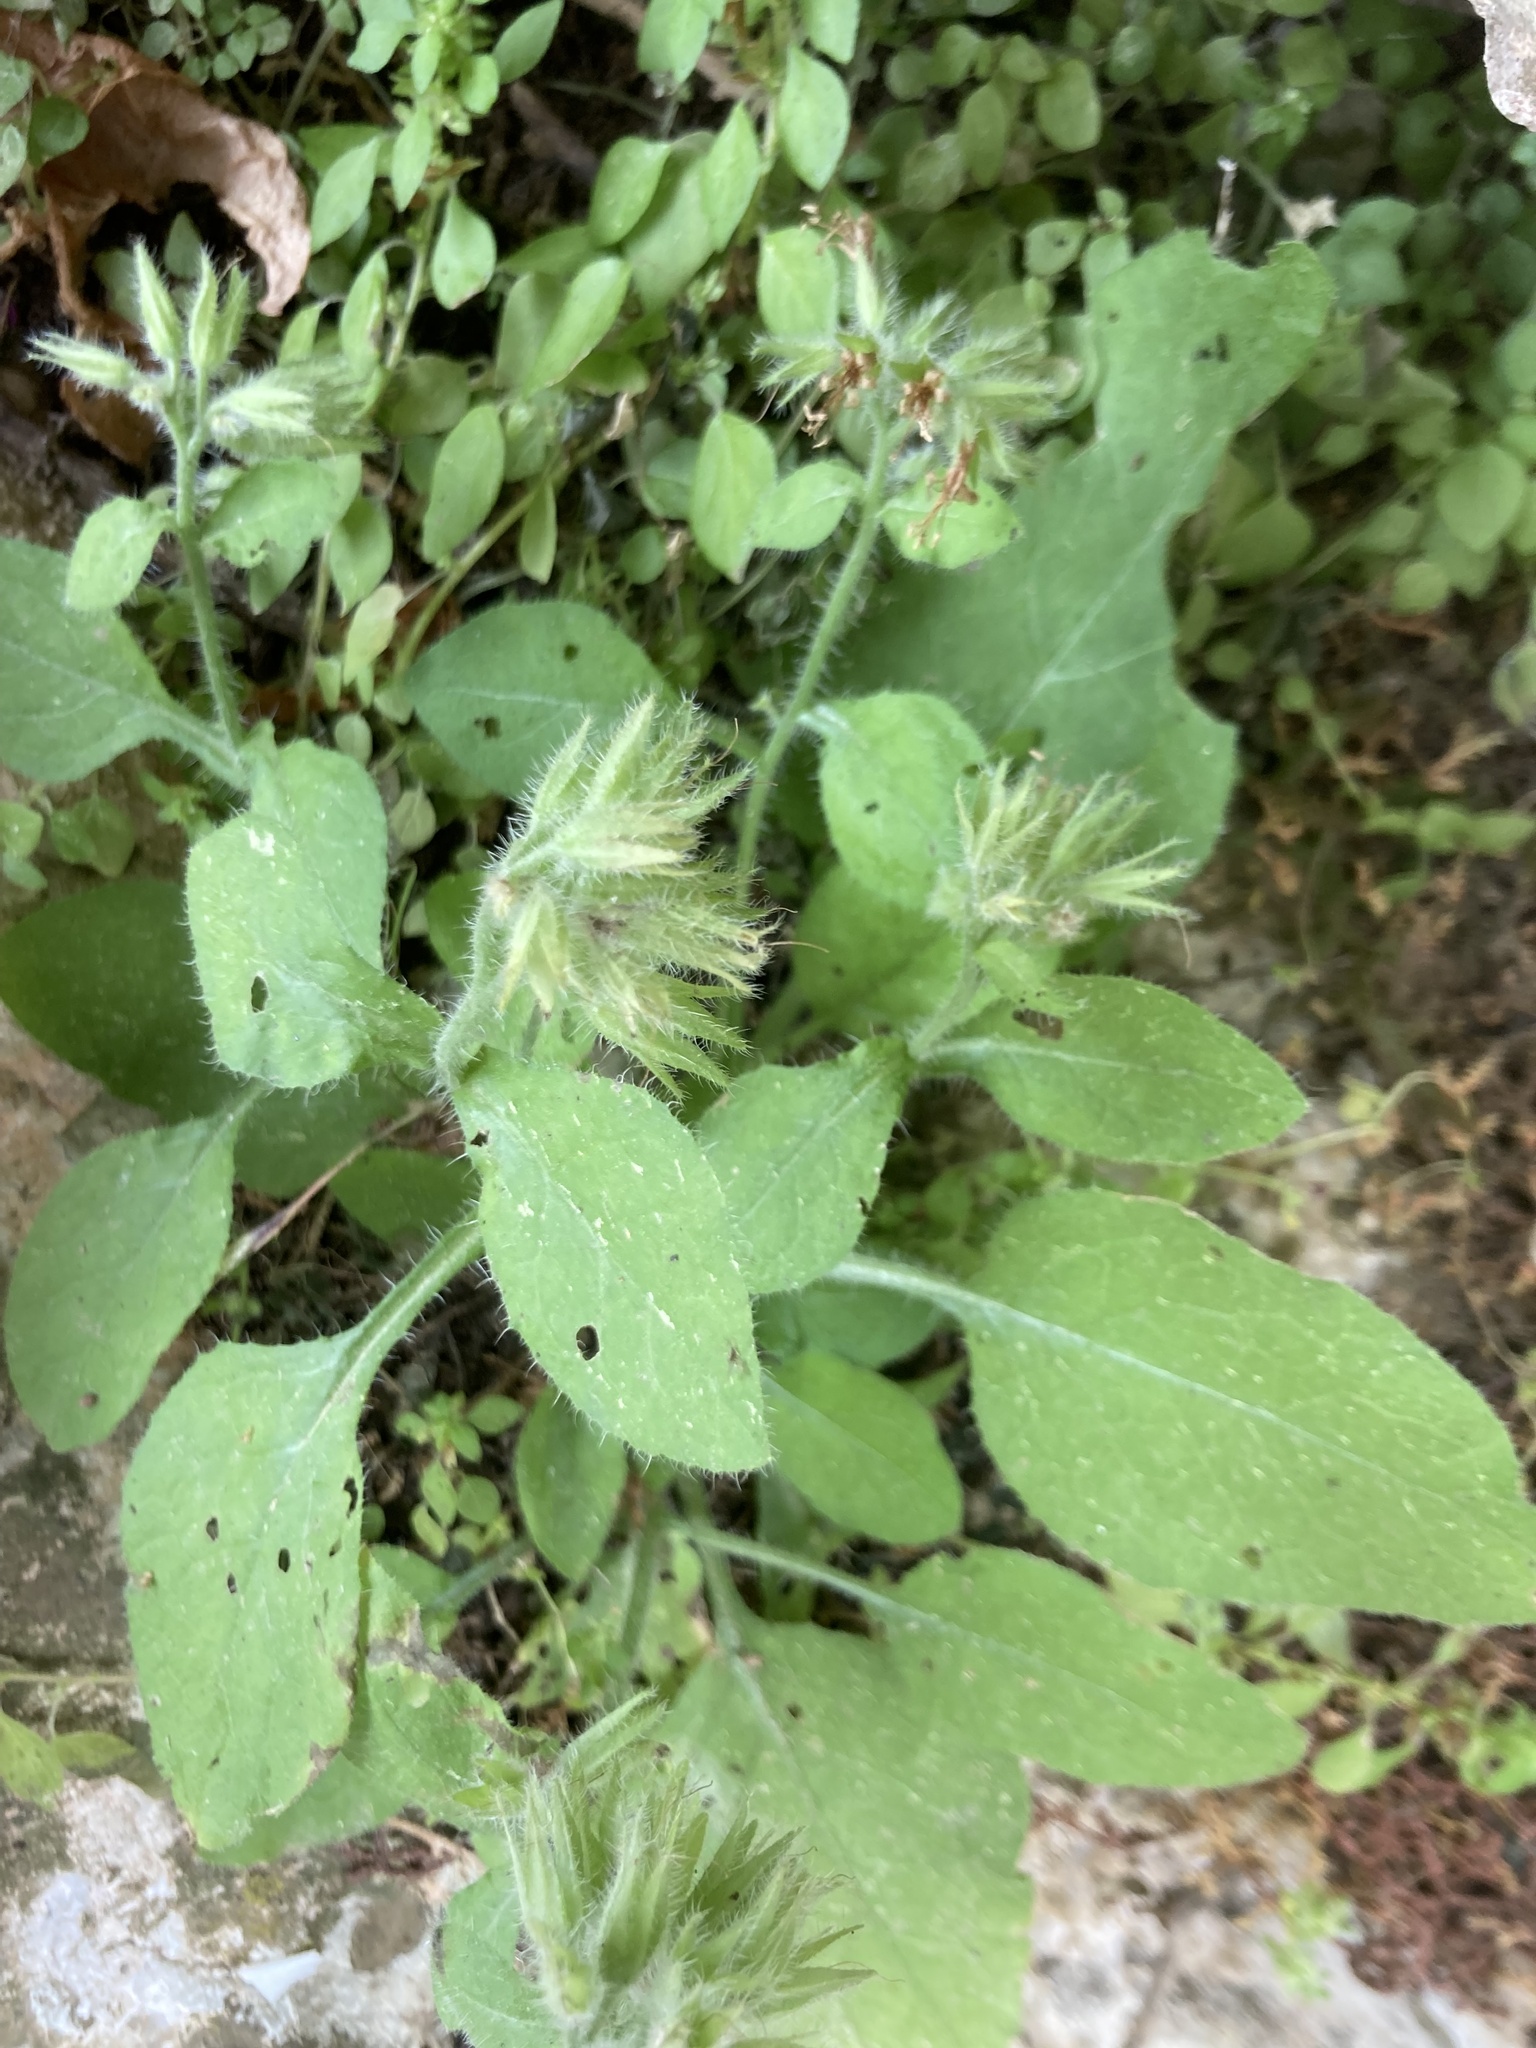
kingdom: Plantae
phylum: Tracheophyta
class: Magnoliopsida
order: Boraginales
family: Boraginaceae
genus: Symphytum
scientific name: Symphytum circinale
